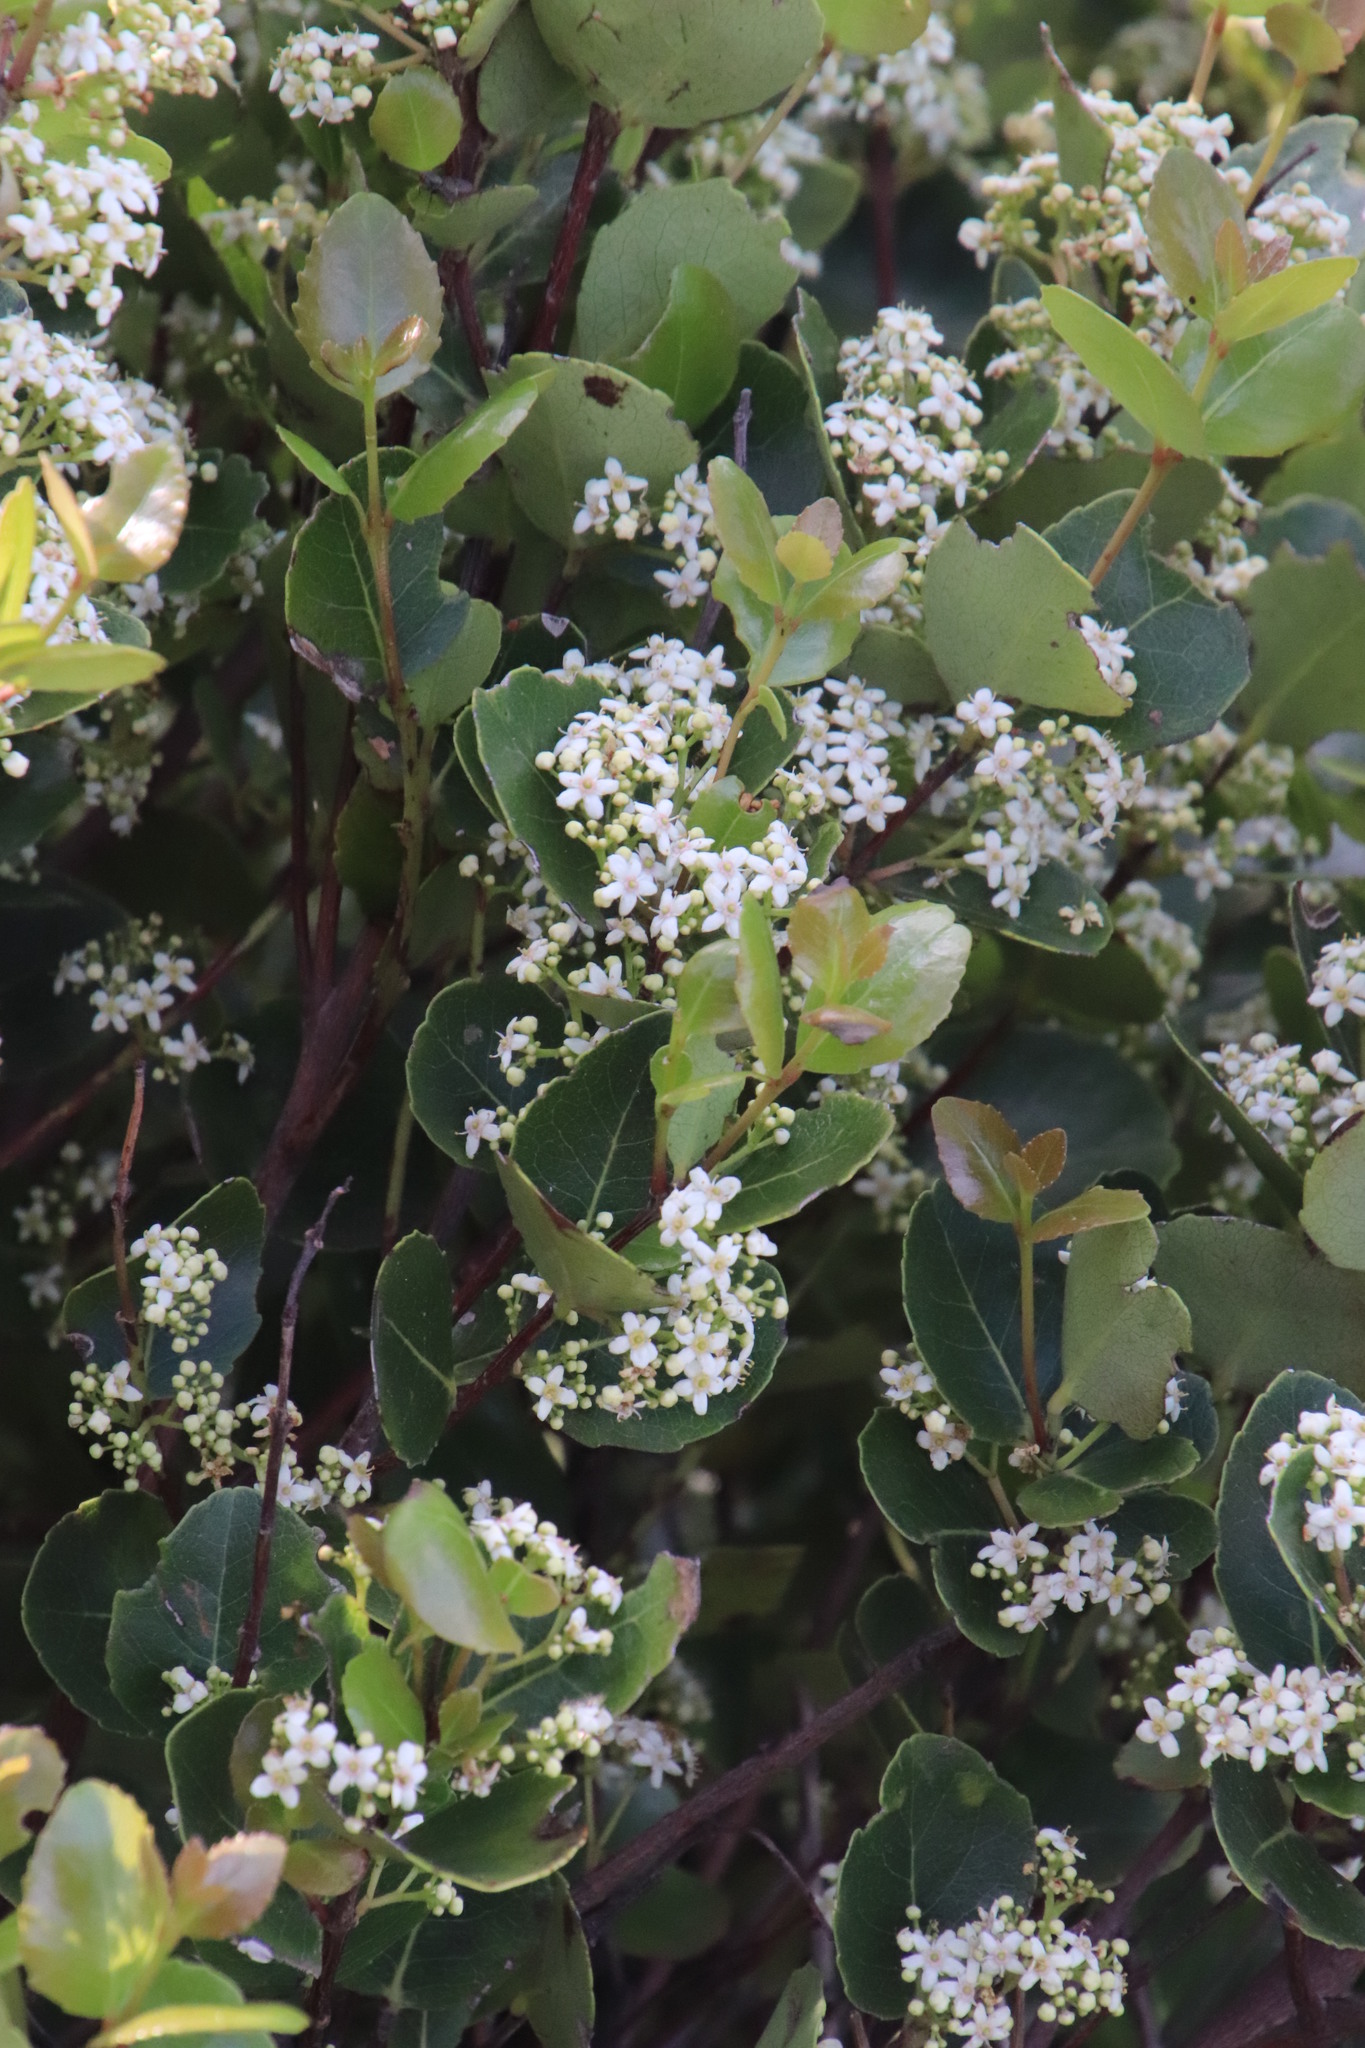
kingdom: Plantae
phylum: Tracheophyta
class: Magnoliopsida
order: Celastrales
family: Celastraceae
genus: Cassine
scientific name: Cassine peragua
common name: Cape saffron
